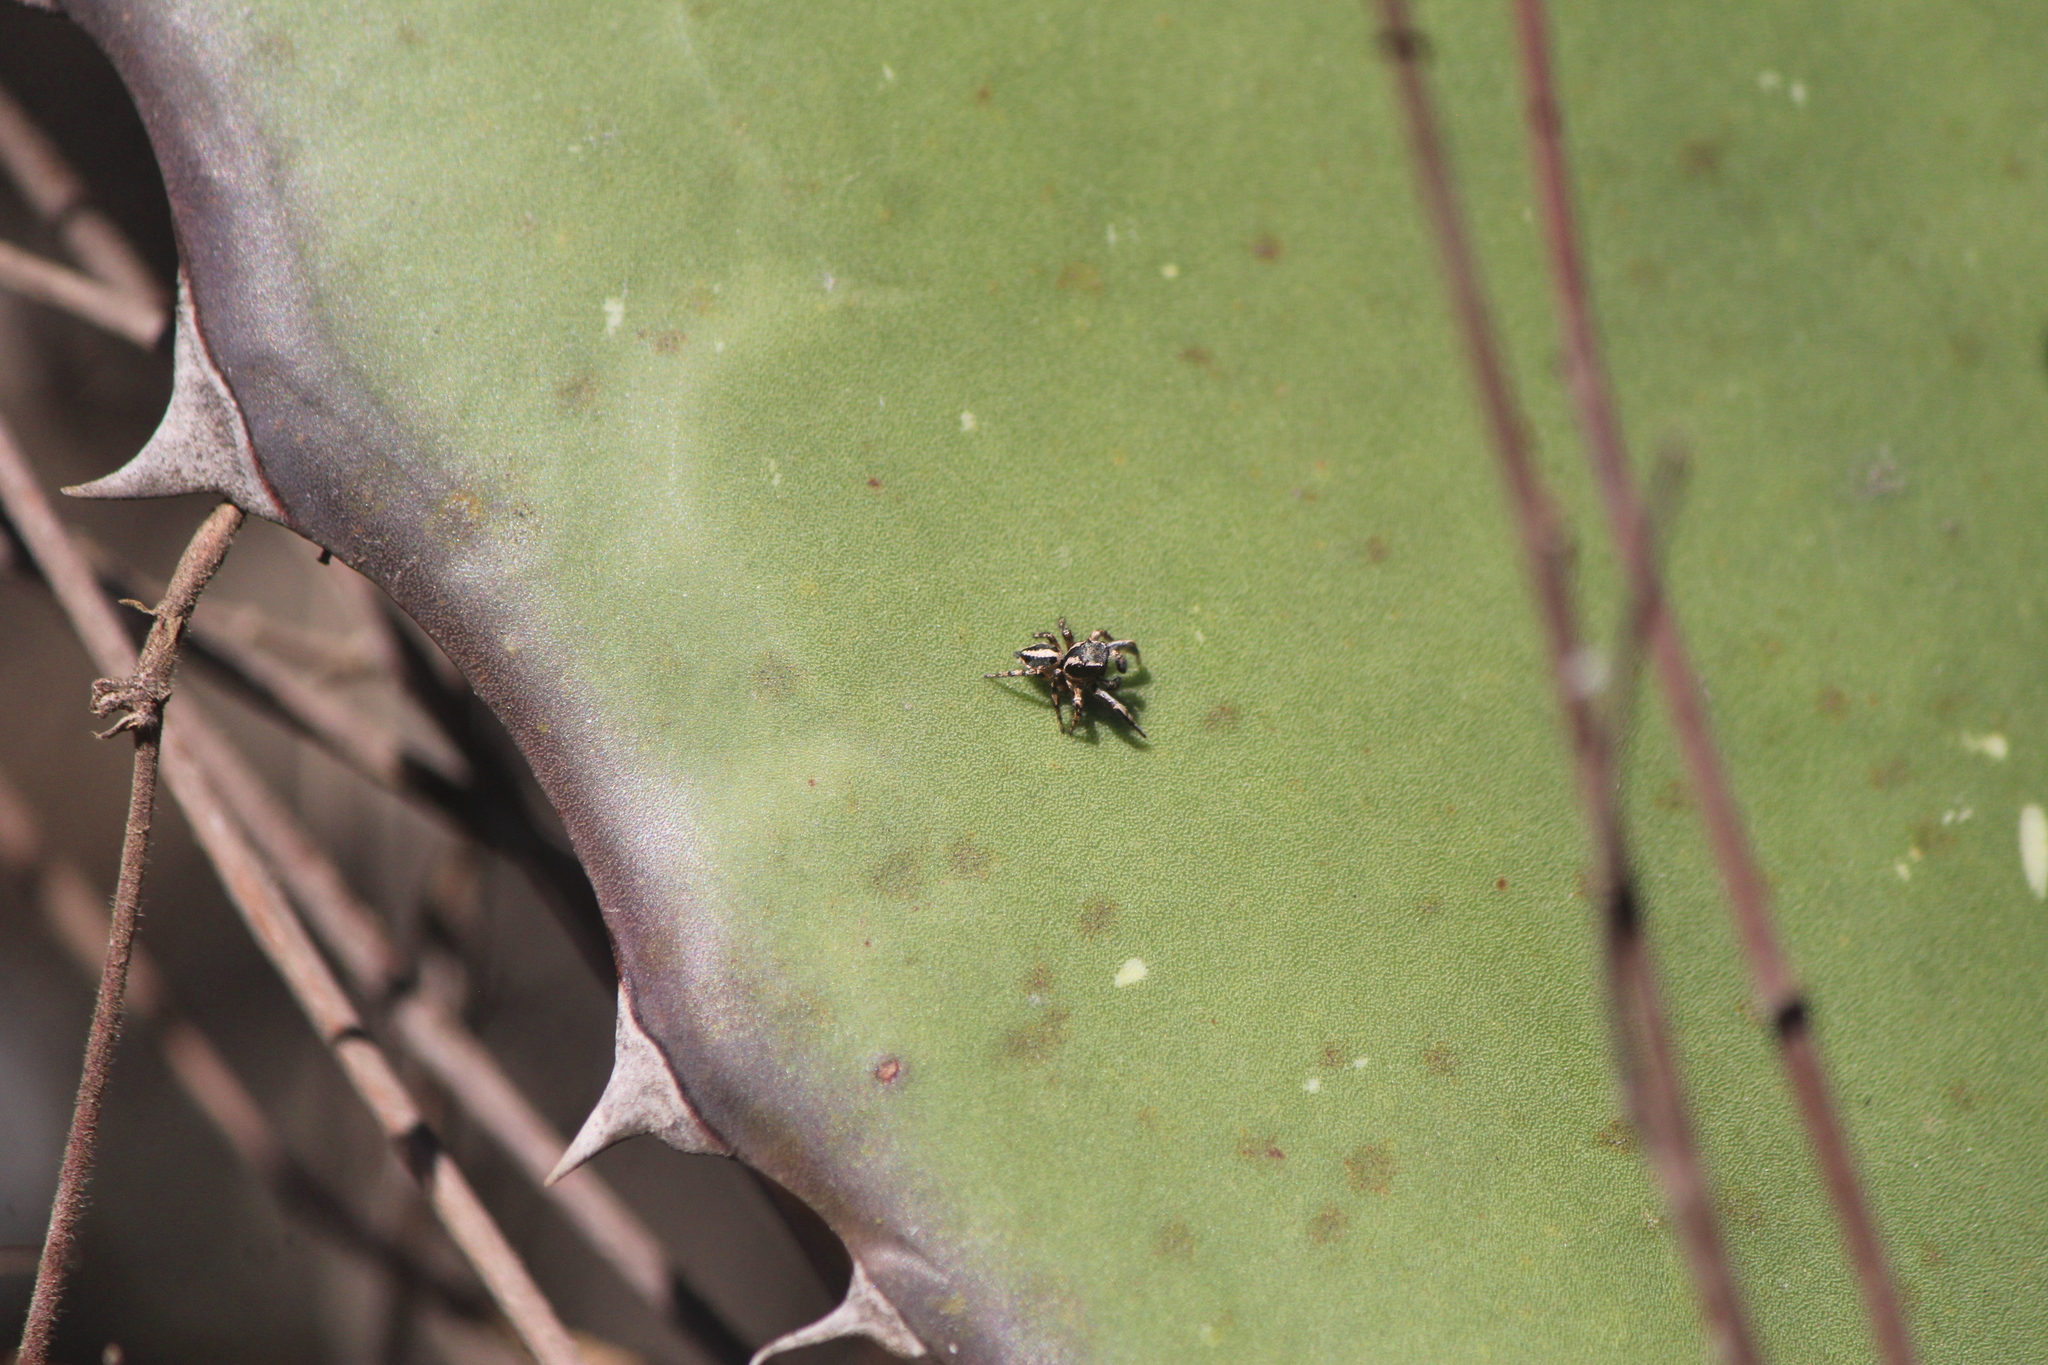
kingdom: Animalia
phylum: Arthropoda
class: Arachnida
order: Araneae
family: Salticidae
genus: Habronattus
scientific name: Habronattus cognatus
